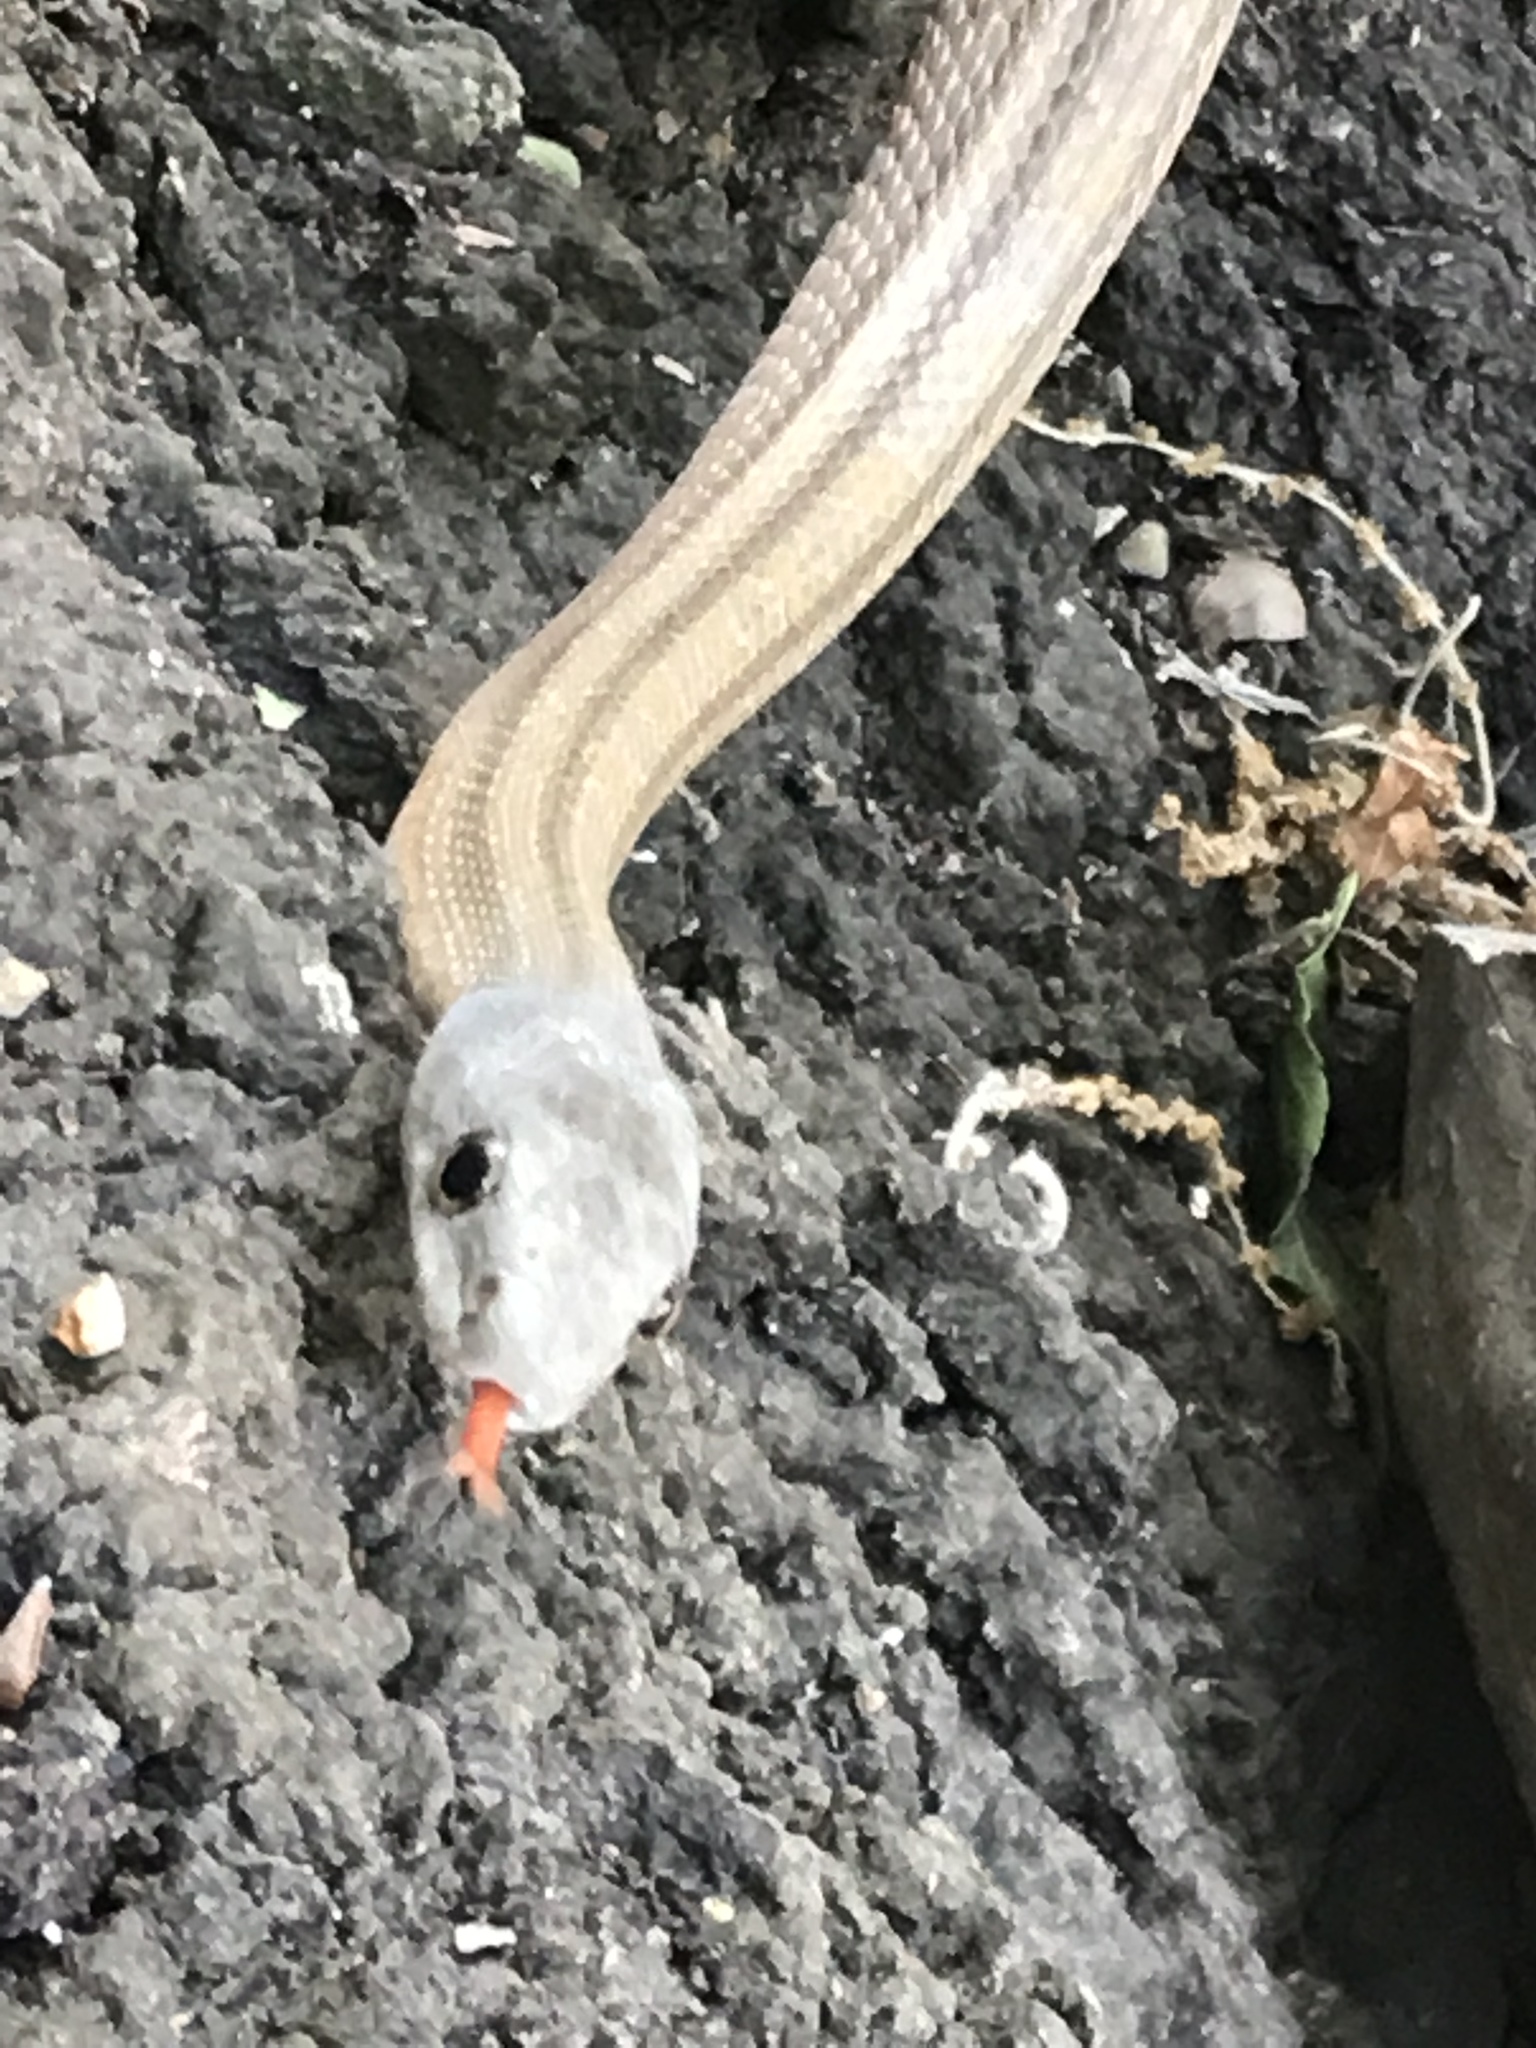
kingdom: Animalia
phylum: Chordata
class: Squamata
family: Colubridae
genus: Pantherophis
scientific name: Pantherophis bairdi
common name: Baird's rat snake
